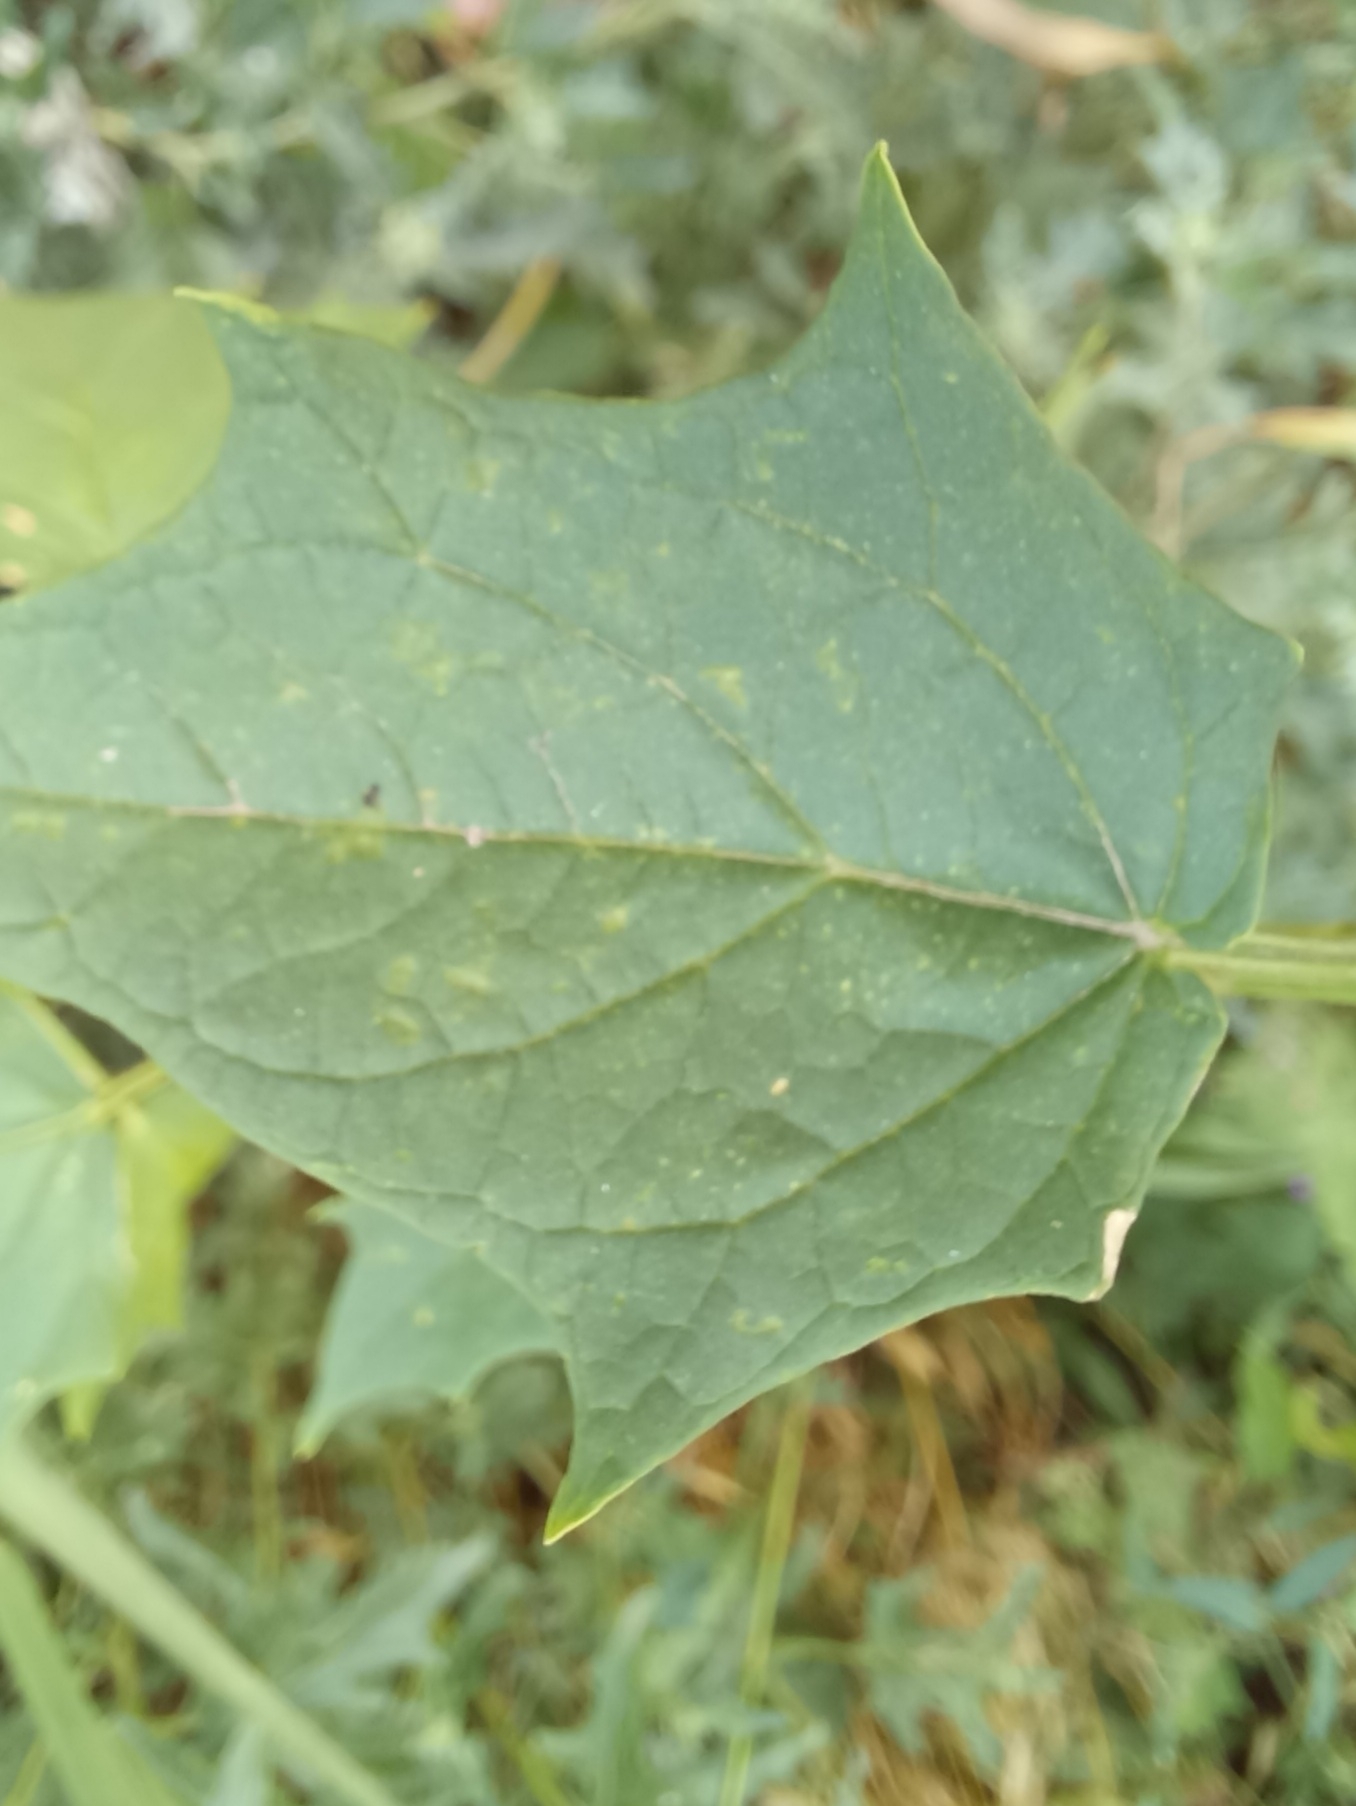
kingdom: Plantae
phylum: Tracheophyta
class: Magnoliopsida
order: Caryophyllales
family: Amaranthaceae
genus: Chenopodiastrum
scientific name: Chenopodiastrum hybridum
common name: Mapleleaf goosefoot
